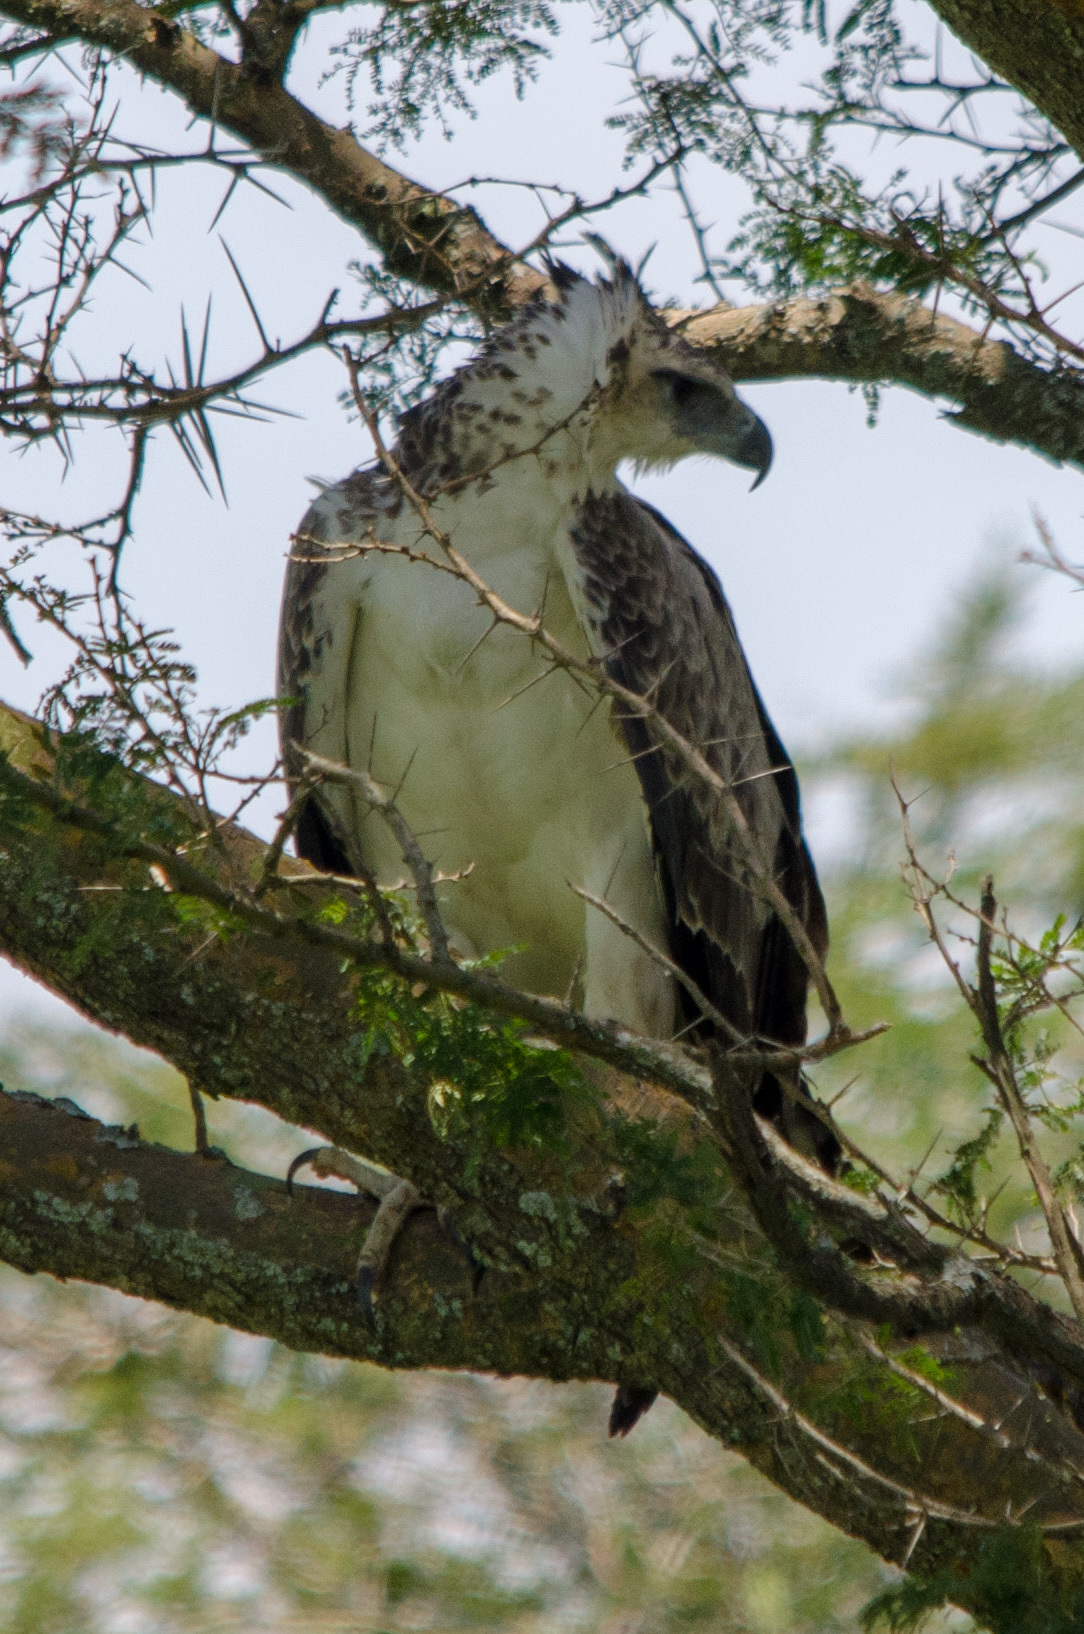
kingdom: Animalia
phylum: Chordata
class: Aves
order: Accipitriformes
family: Accipitridae
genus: Polemaetus
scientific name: Polemaetus bellicosus
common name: Martial eagle
